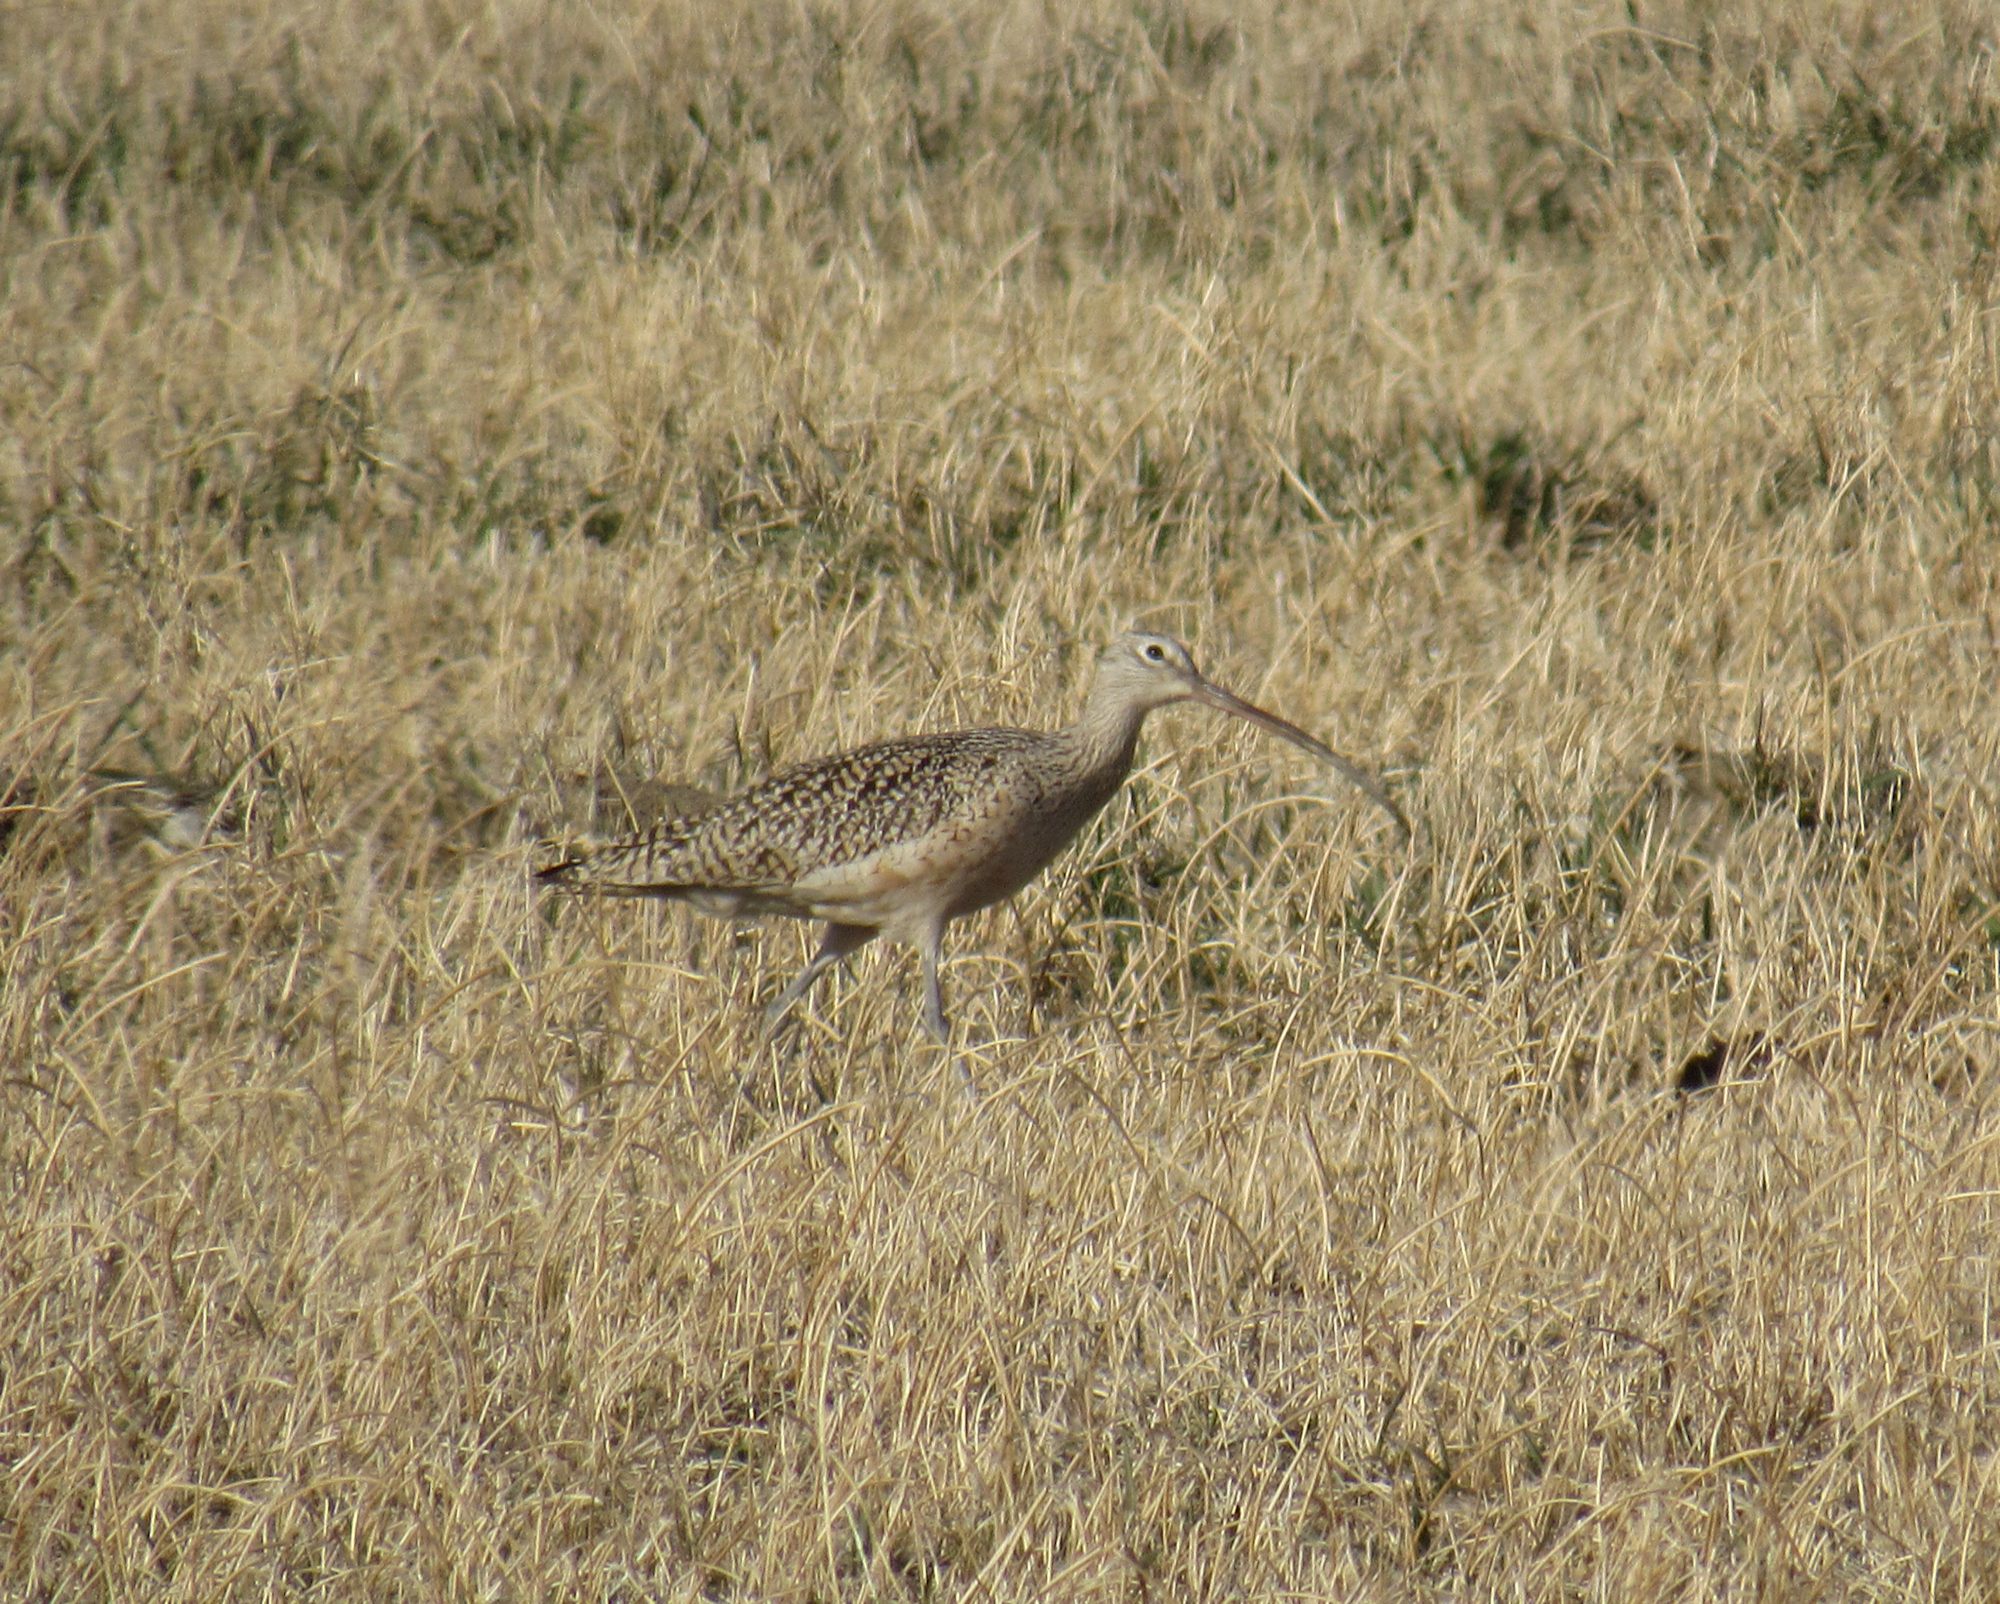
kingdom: Animalia
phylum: Chordata
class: Aves
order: Charadriiformes
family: Scolopacidae
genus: Numenius
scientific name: Numenius americanus
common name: Long-billed curlew
